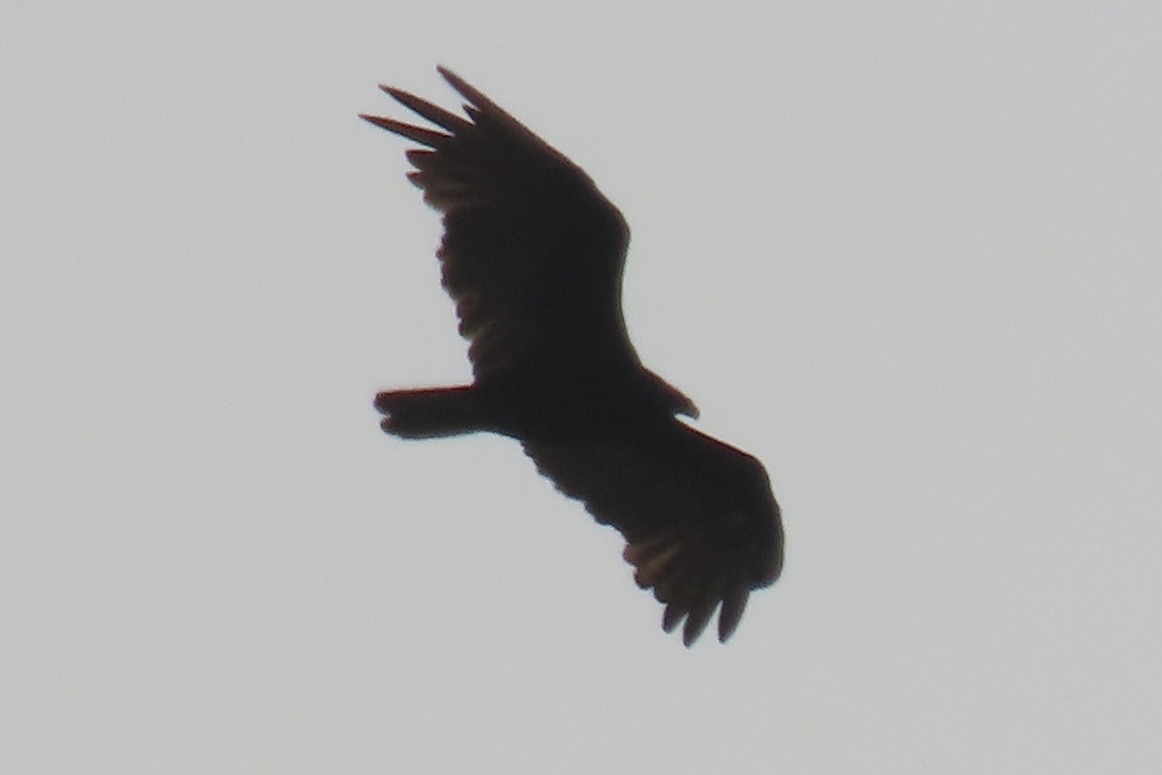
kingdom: Animalia
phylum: Chordata
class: Aves
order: Accipitriformes
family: Cathartidae
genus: Cathartes
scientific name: Cathartes aura
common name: Turkey vulture
